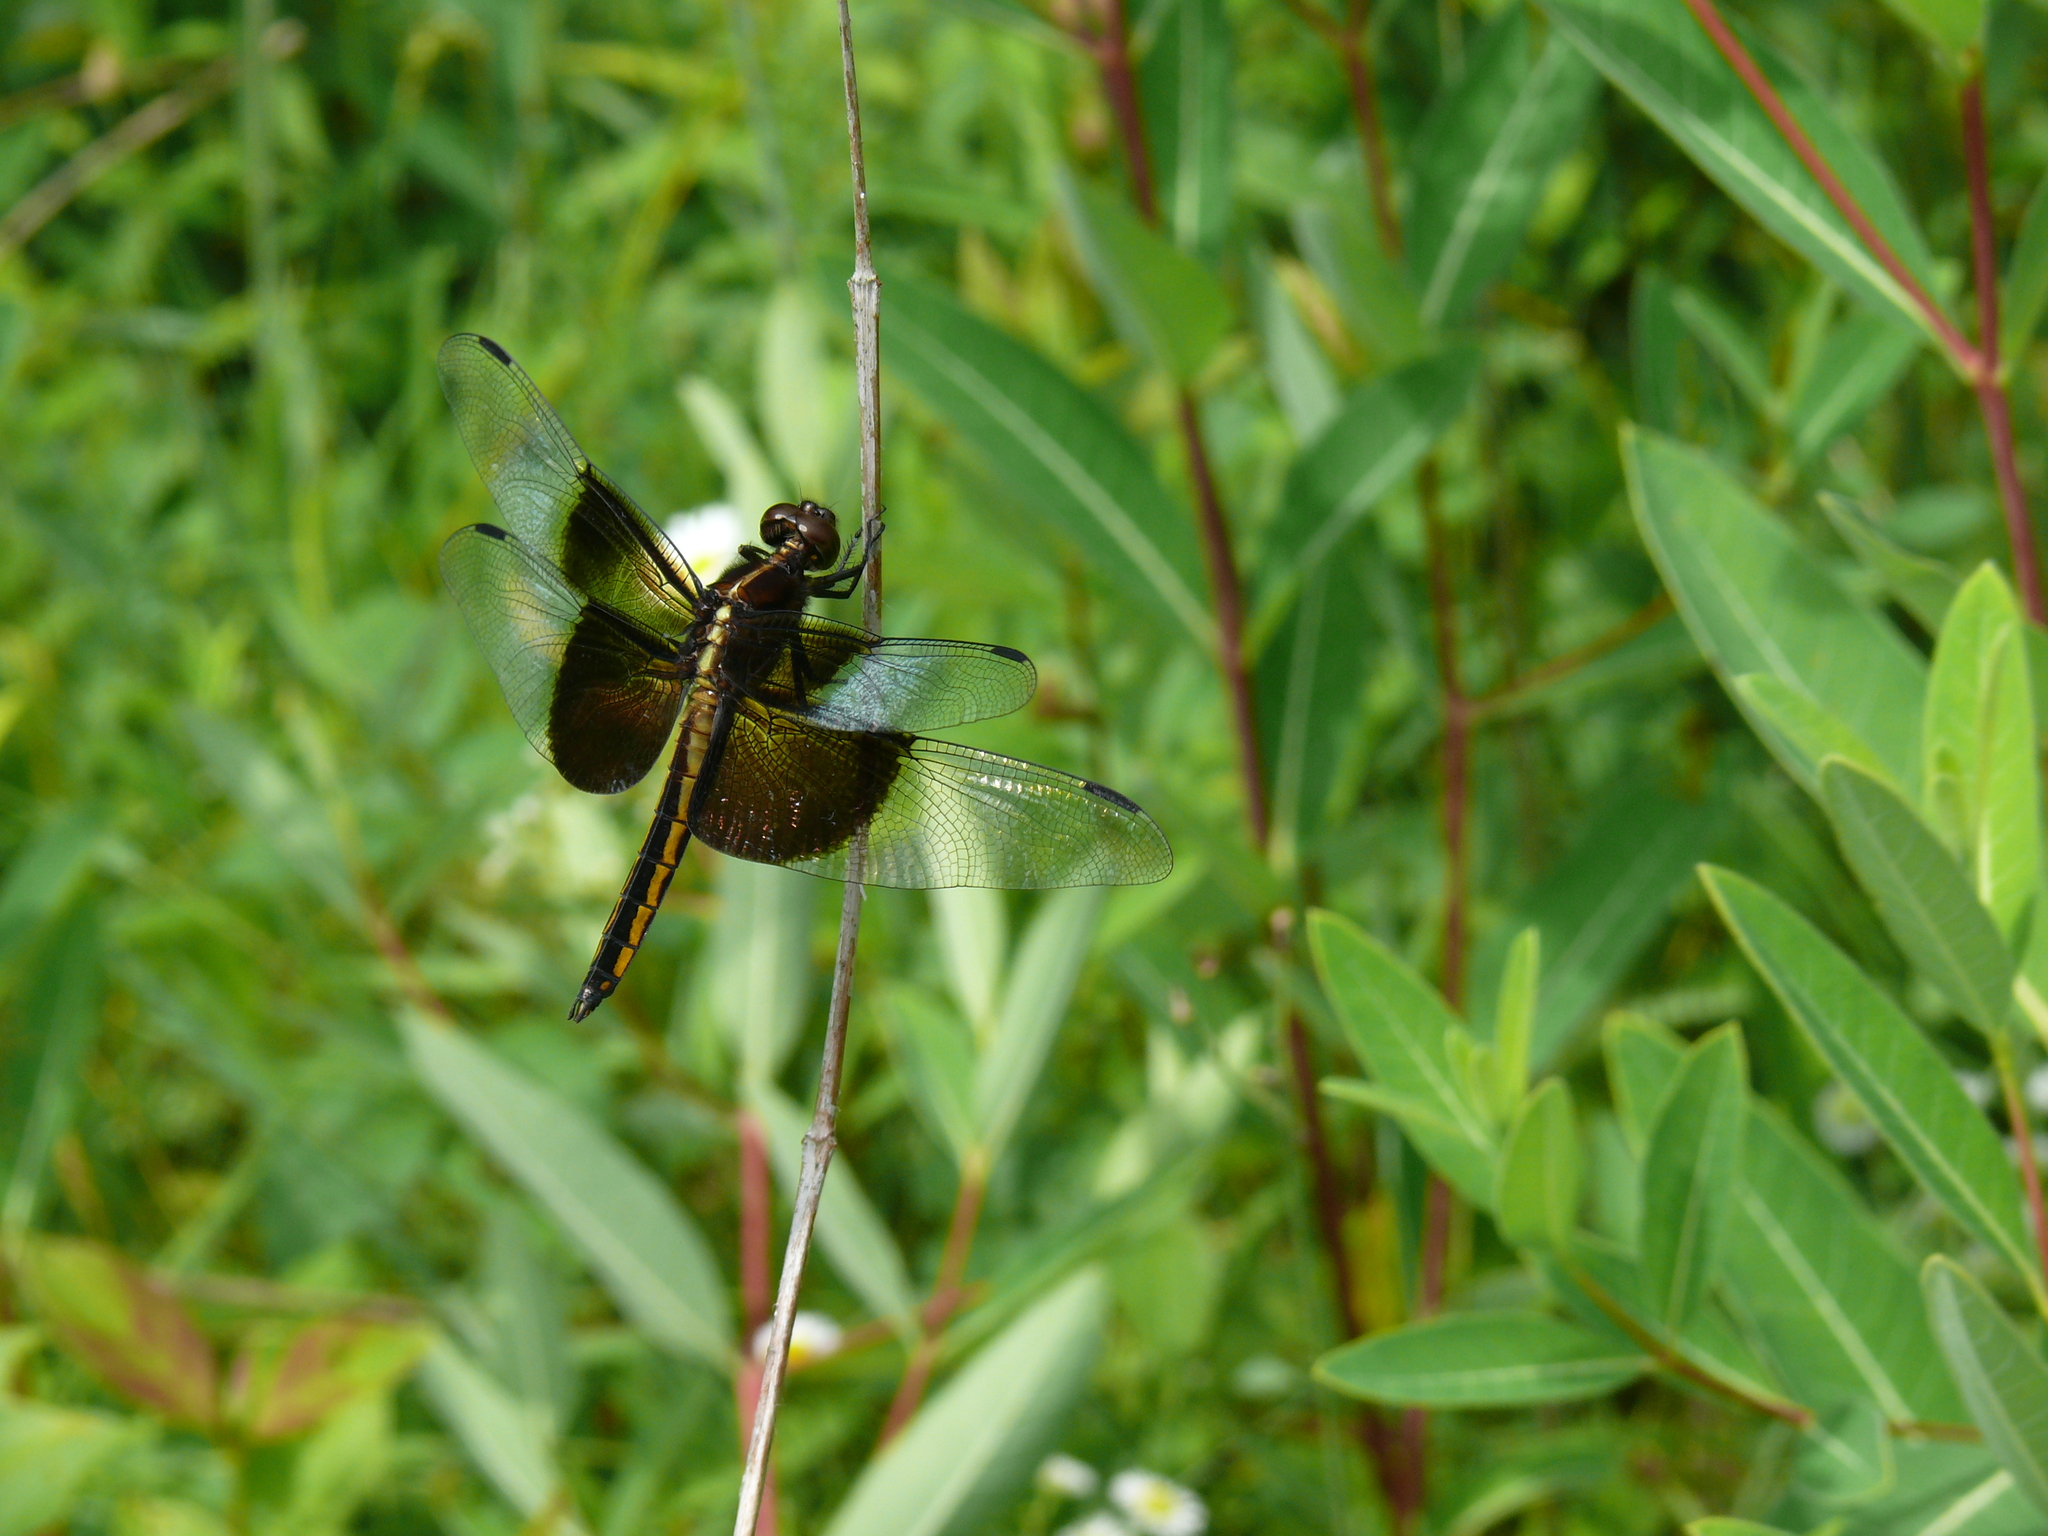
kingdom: Animalia
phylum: Arthropoda
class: Insecta
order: Odonata
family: Libellulidae
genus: Libellula
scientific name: Libellula luctuosa
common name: Widow skimmer
